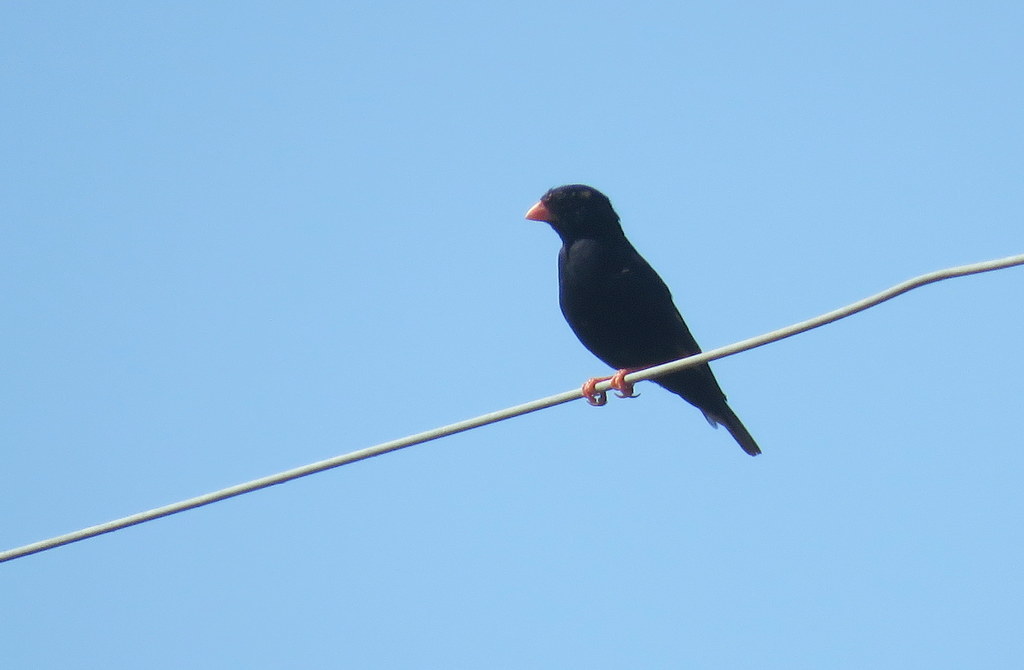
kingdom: Animalia
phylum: Chordata
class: Aves
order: Passeriformes
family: Viduidae
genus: Vidua
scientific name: Vidua chalybeata
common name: Village indigobird
